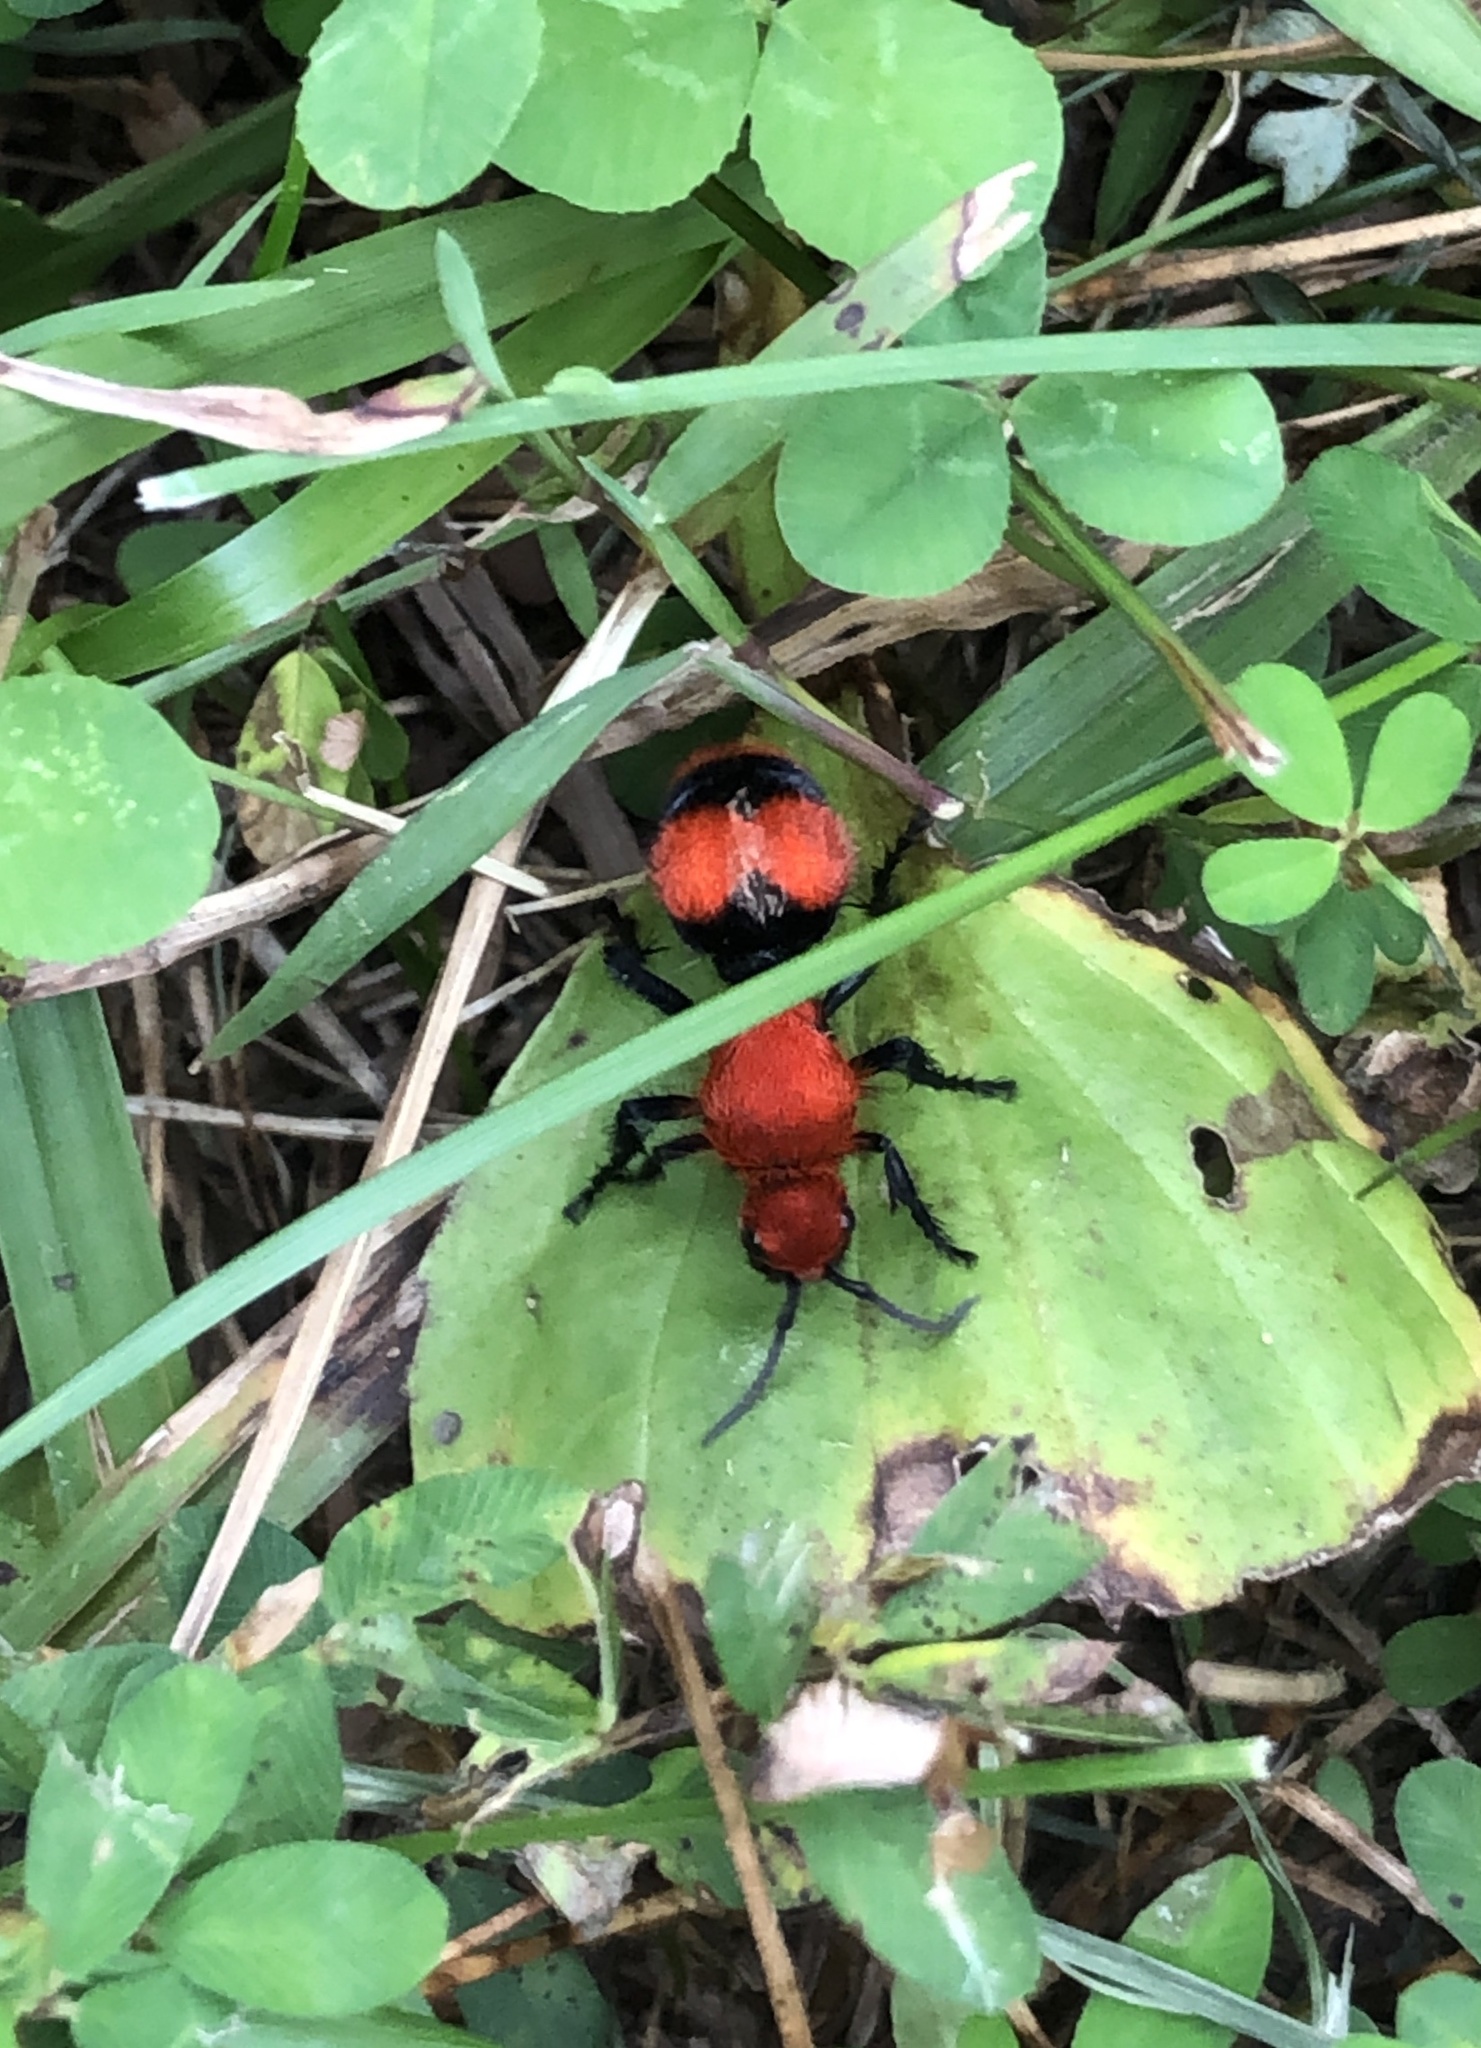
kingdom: Animalia
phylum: Arthropoda
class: Insecta
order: Hymenoptera
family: Mutillidae
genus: Dasymutilla
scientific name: Dasymutilla occidentalis
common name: Common eastern velvet ant
